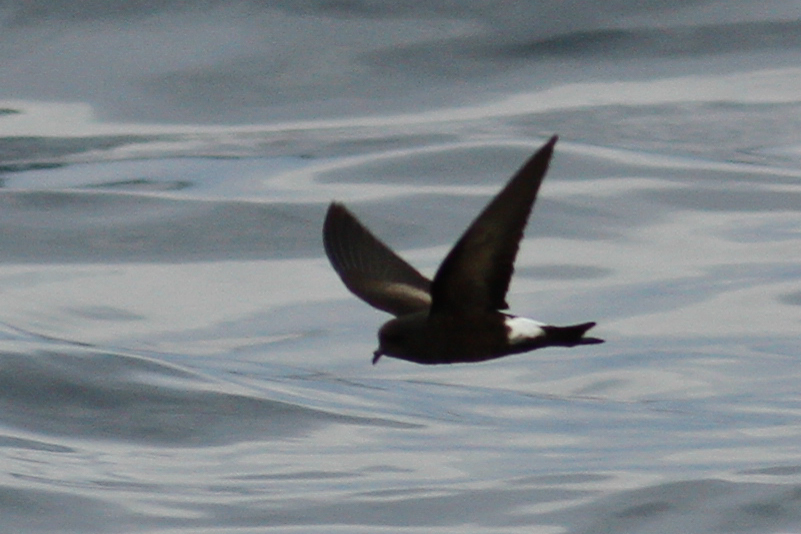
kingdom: Animalia
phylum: Chordata
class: Aves
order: Procellariiformes
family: Hydrobatidae
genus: Oceanites
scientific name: Oceanites oceanicus
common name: Wilson's storm petrel
